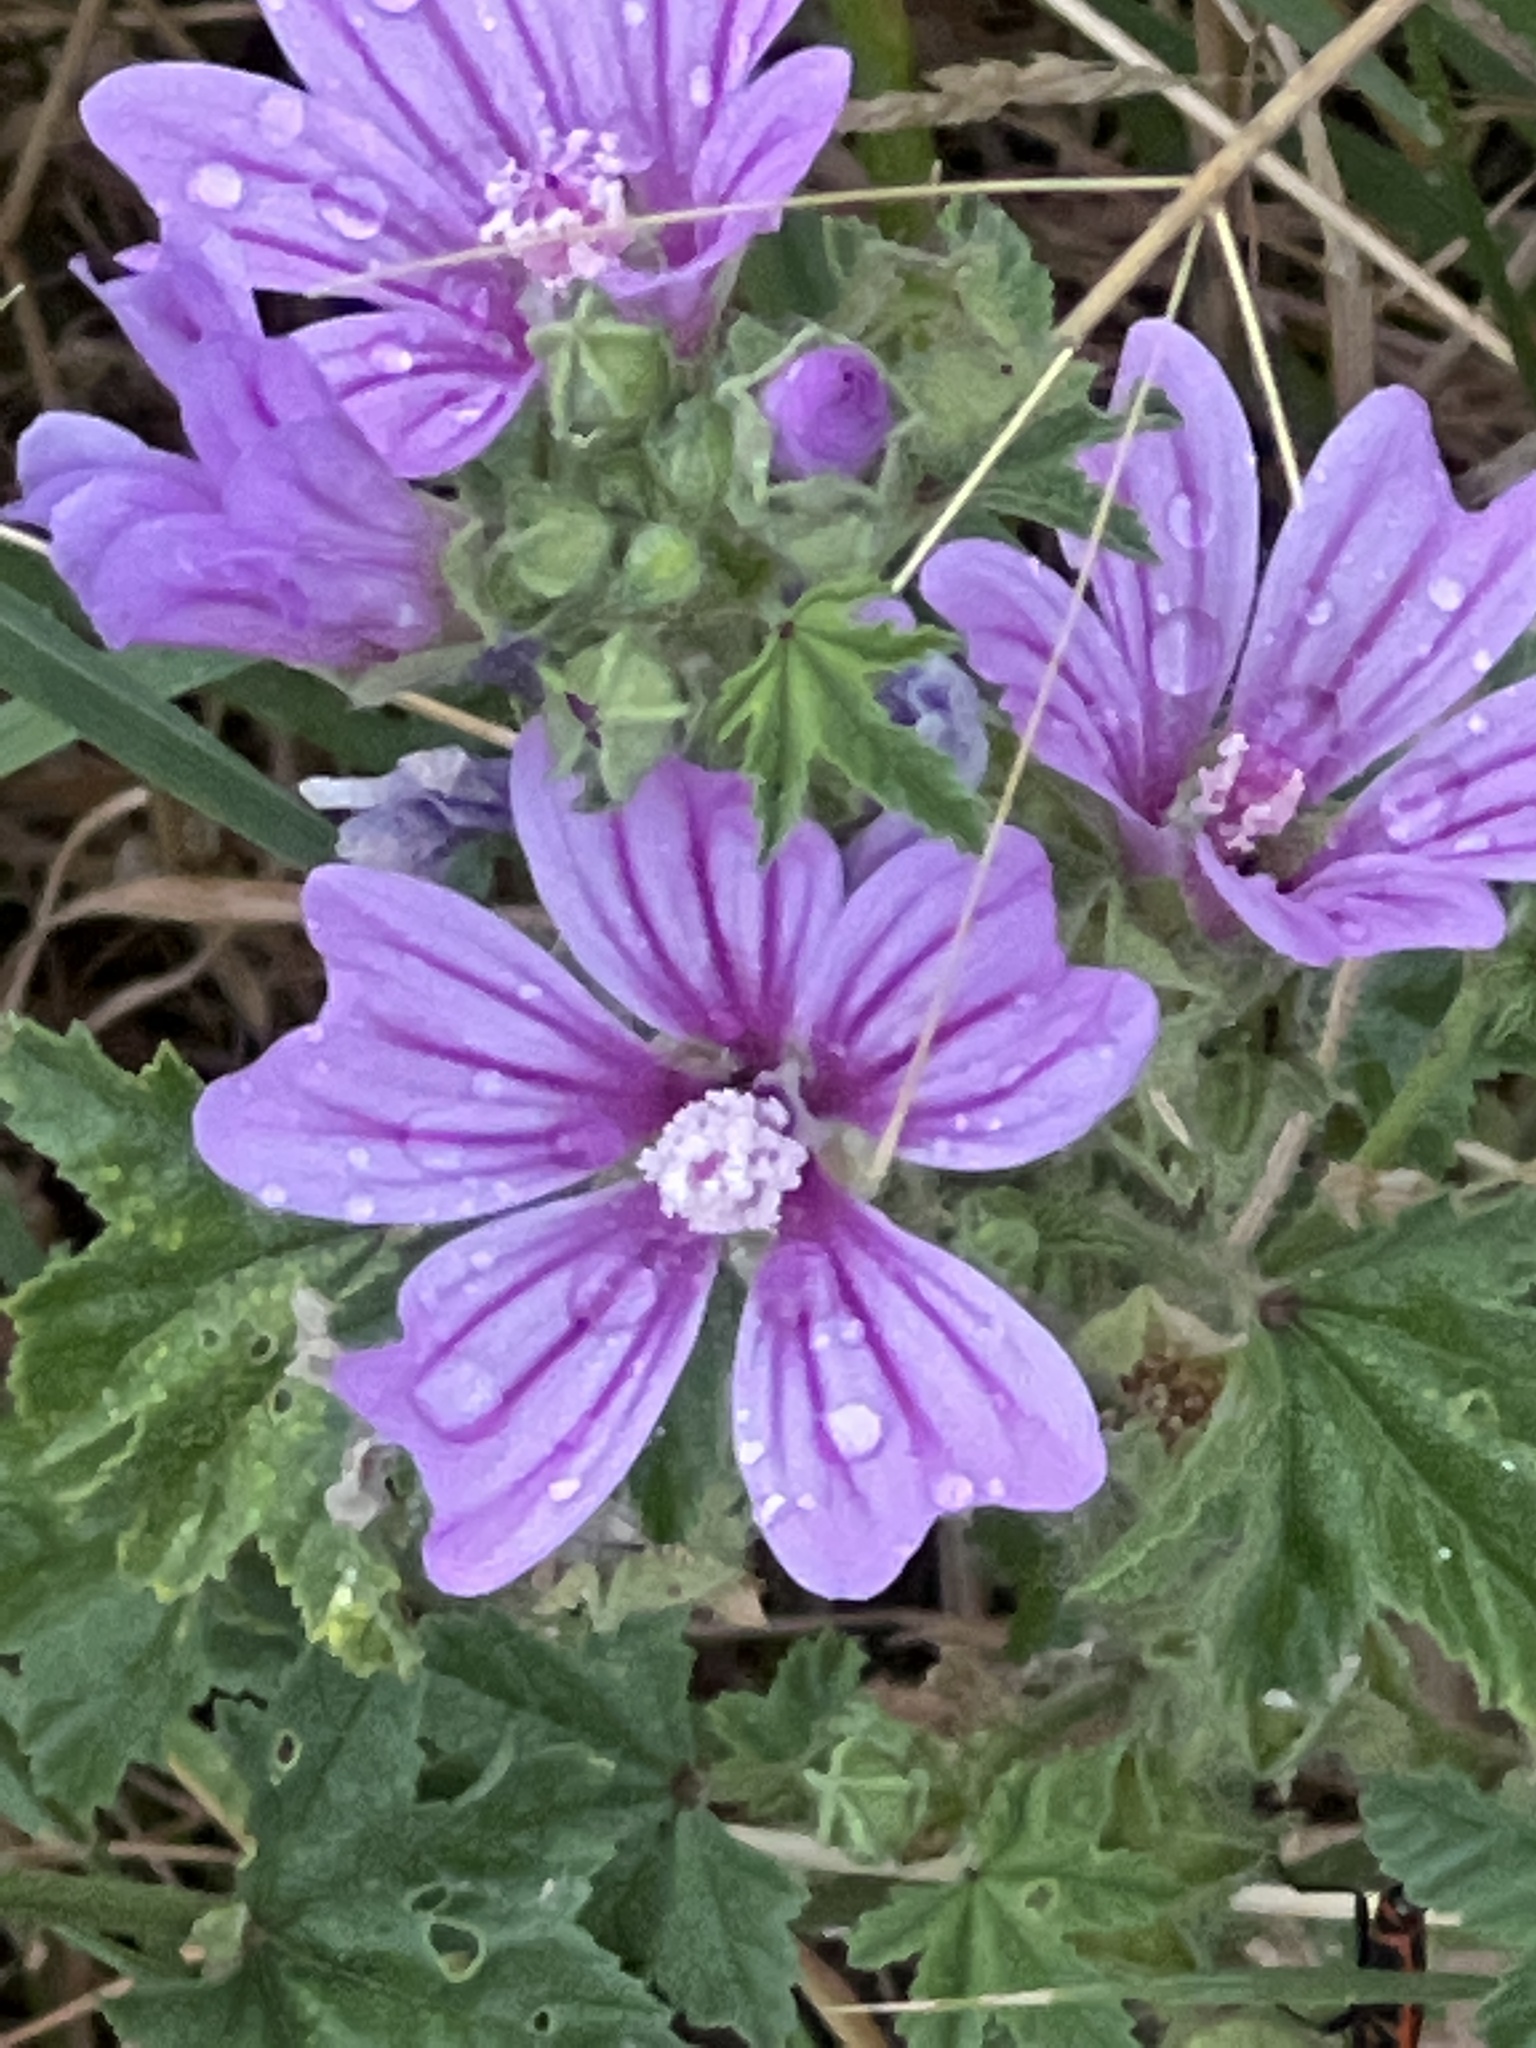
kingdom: Plantae
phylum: Tracheophyta
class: Magnoliopsida
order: Malvales
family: Malvaceae
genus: Malva
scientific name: Malva sylvestris
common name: Common mallow
